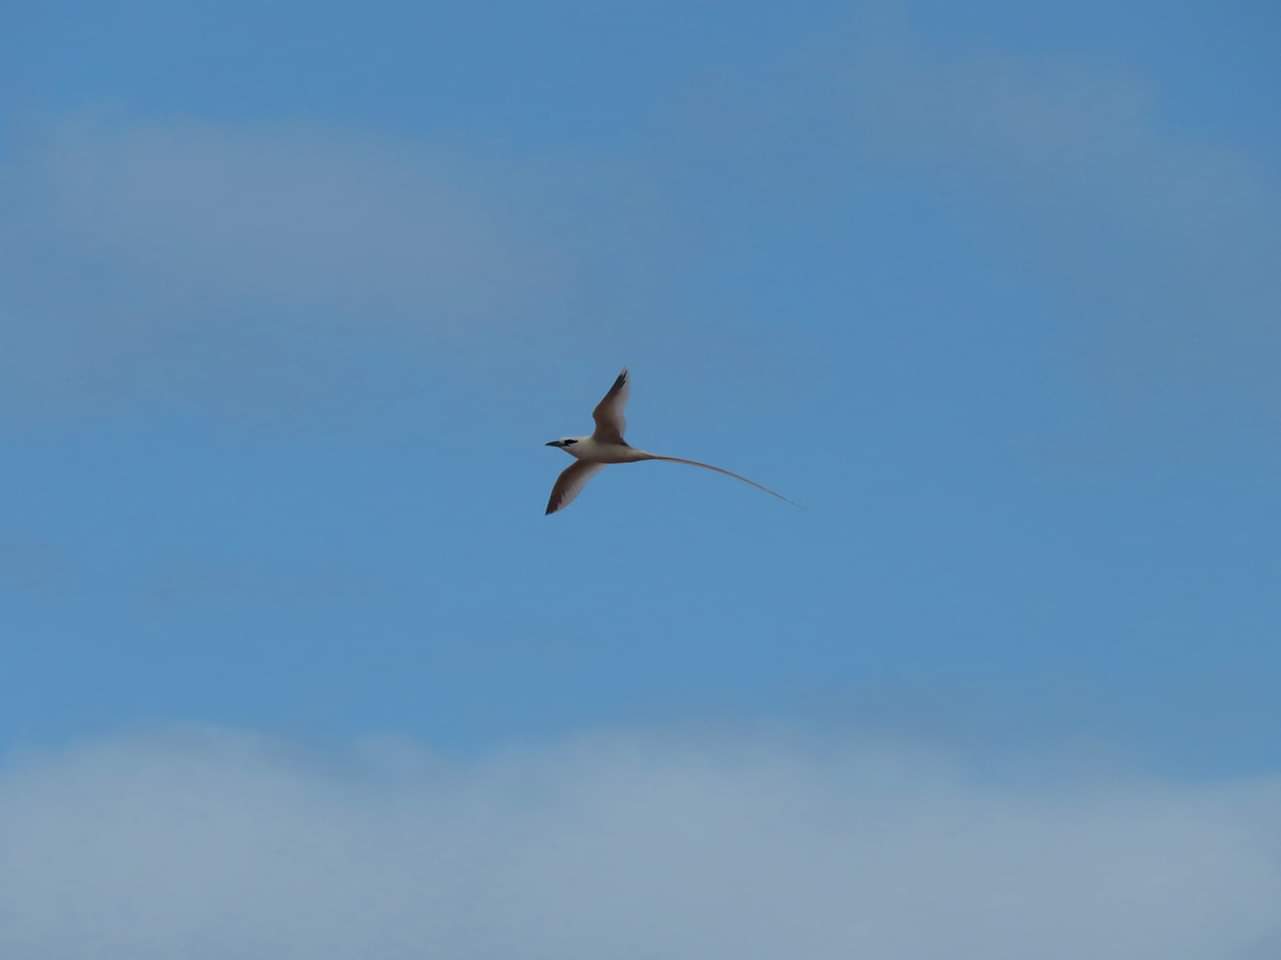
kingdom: Animalia
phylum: Chordata
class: Aves
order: Phaethontiformes
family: Phaethontidae
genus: Phaethon
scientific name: Phaethon lepturus
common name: White-tailed tropicbird
